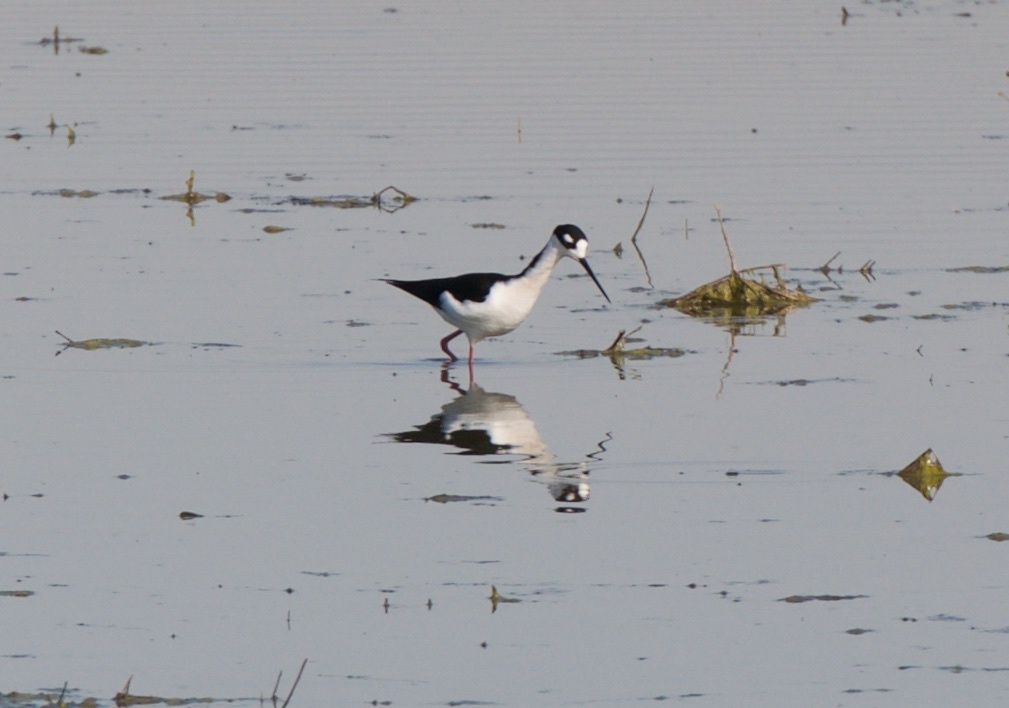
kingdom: Animalia
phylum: Chordata
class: Aves
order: Charadriiformes
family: Recurvirostridae
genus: Himantopus
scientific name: Himantopus mexicanus
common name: Black-necked stilt
